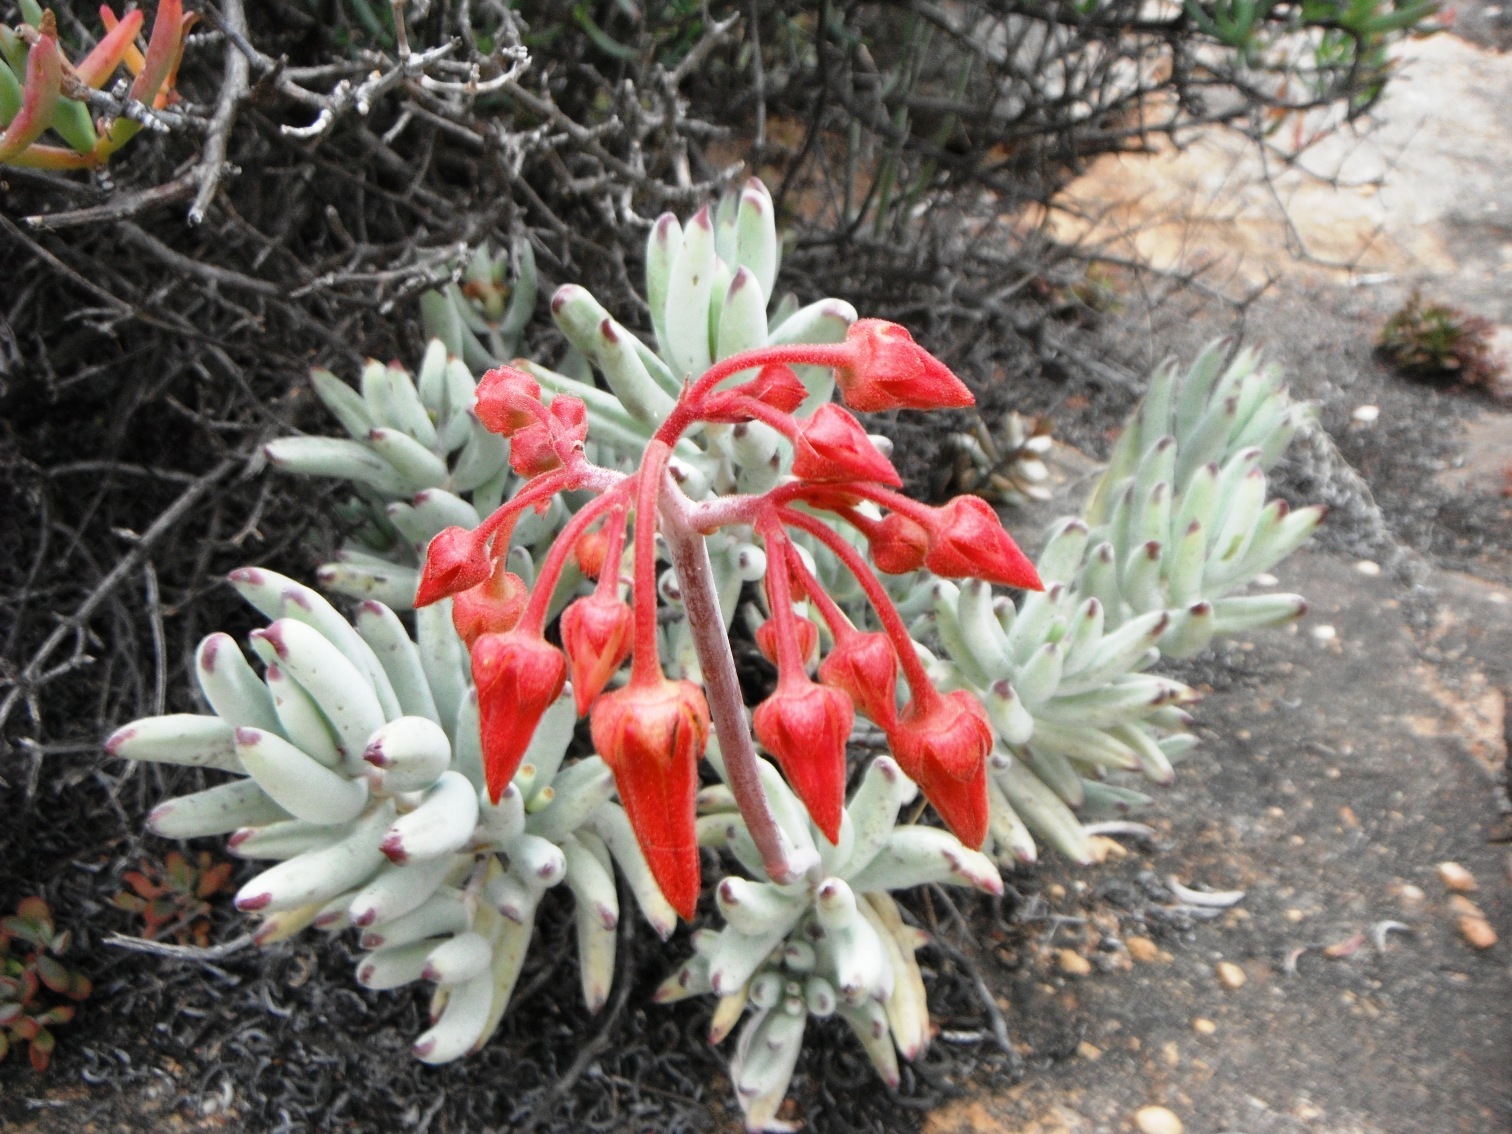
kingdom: Plantae
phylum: Tracheophyta
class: Magnoliopsida
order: Saxifragales
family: Crassulaceae
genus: Cotyledon
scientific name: Cotyledon orbiculata
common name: Pig's ear
